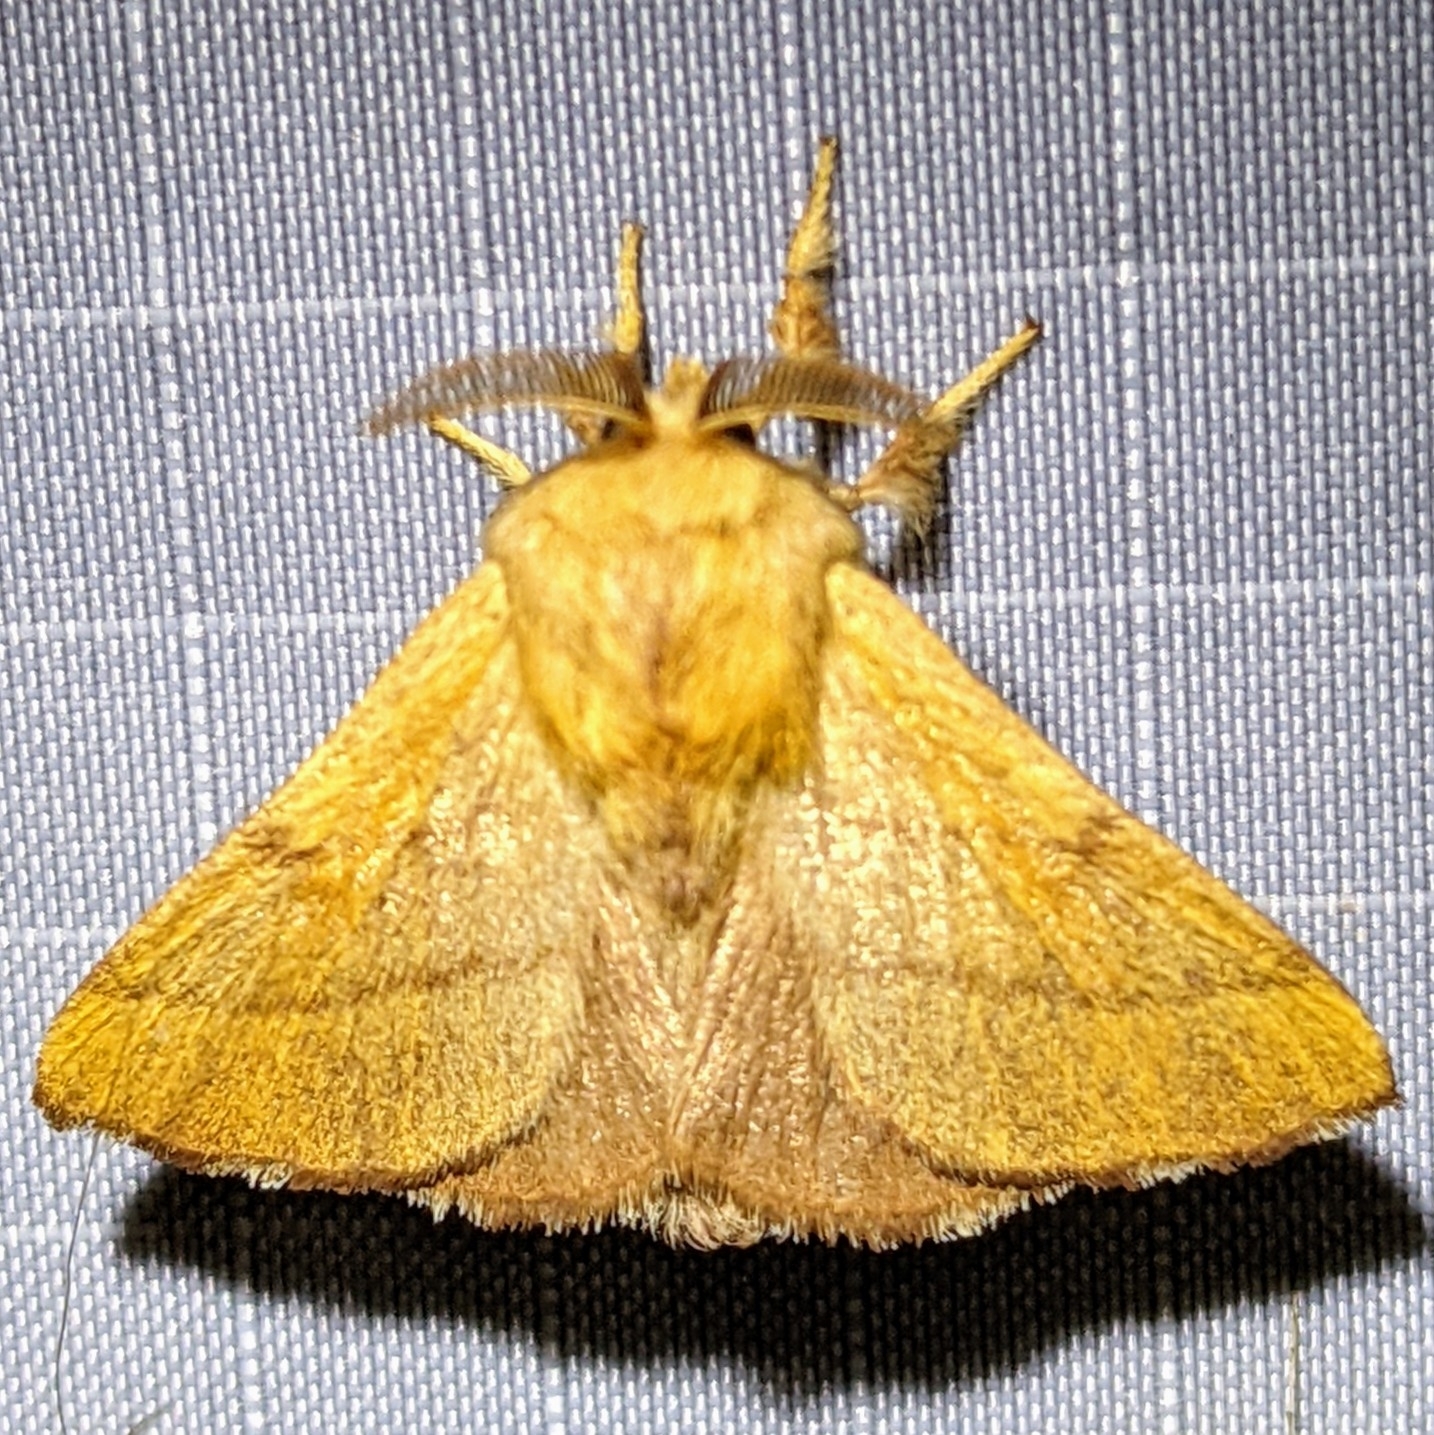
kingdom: Animalia
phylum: Arthropoda
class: Insecta
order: Lepidoptera
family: Lasiocampidae
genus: Malacosoma
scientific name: Malacosoma disstria
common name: Forest tent caterpillar
